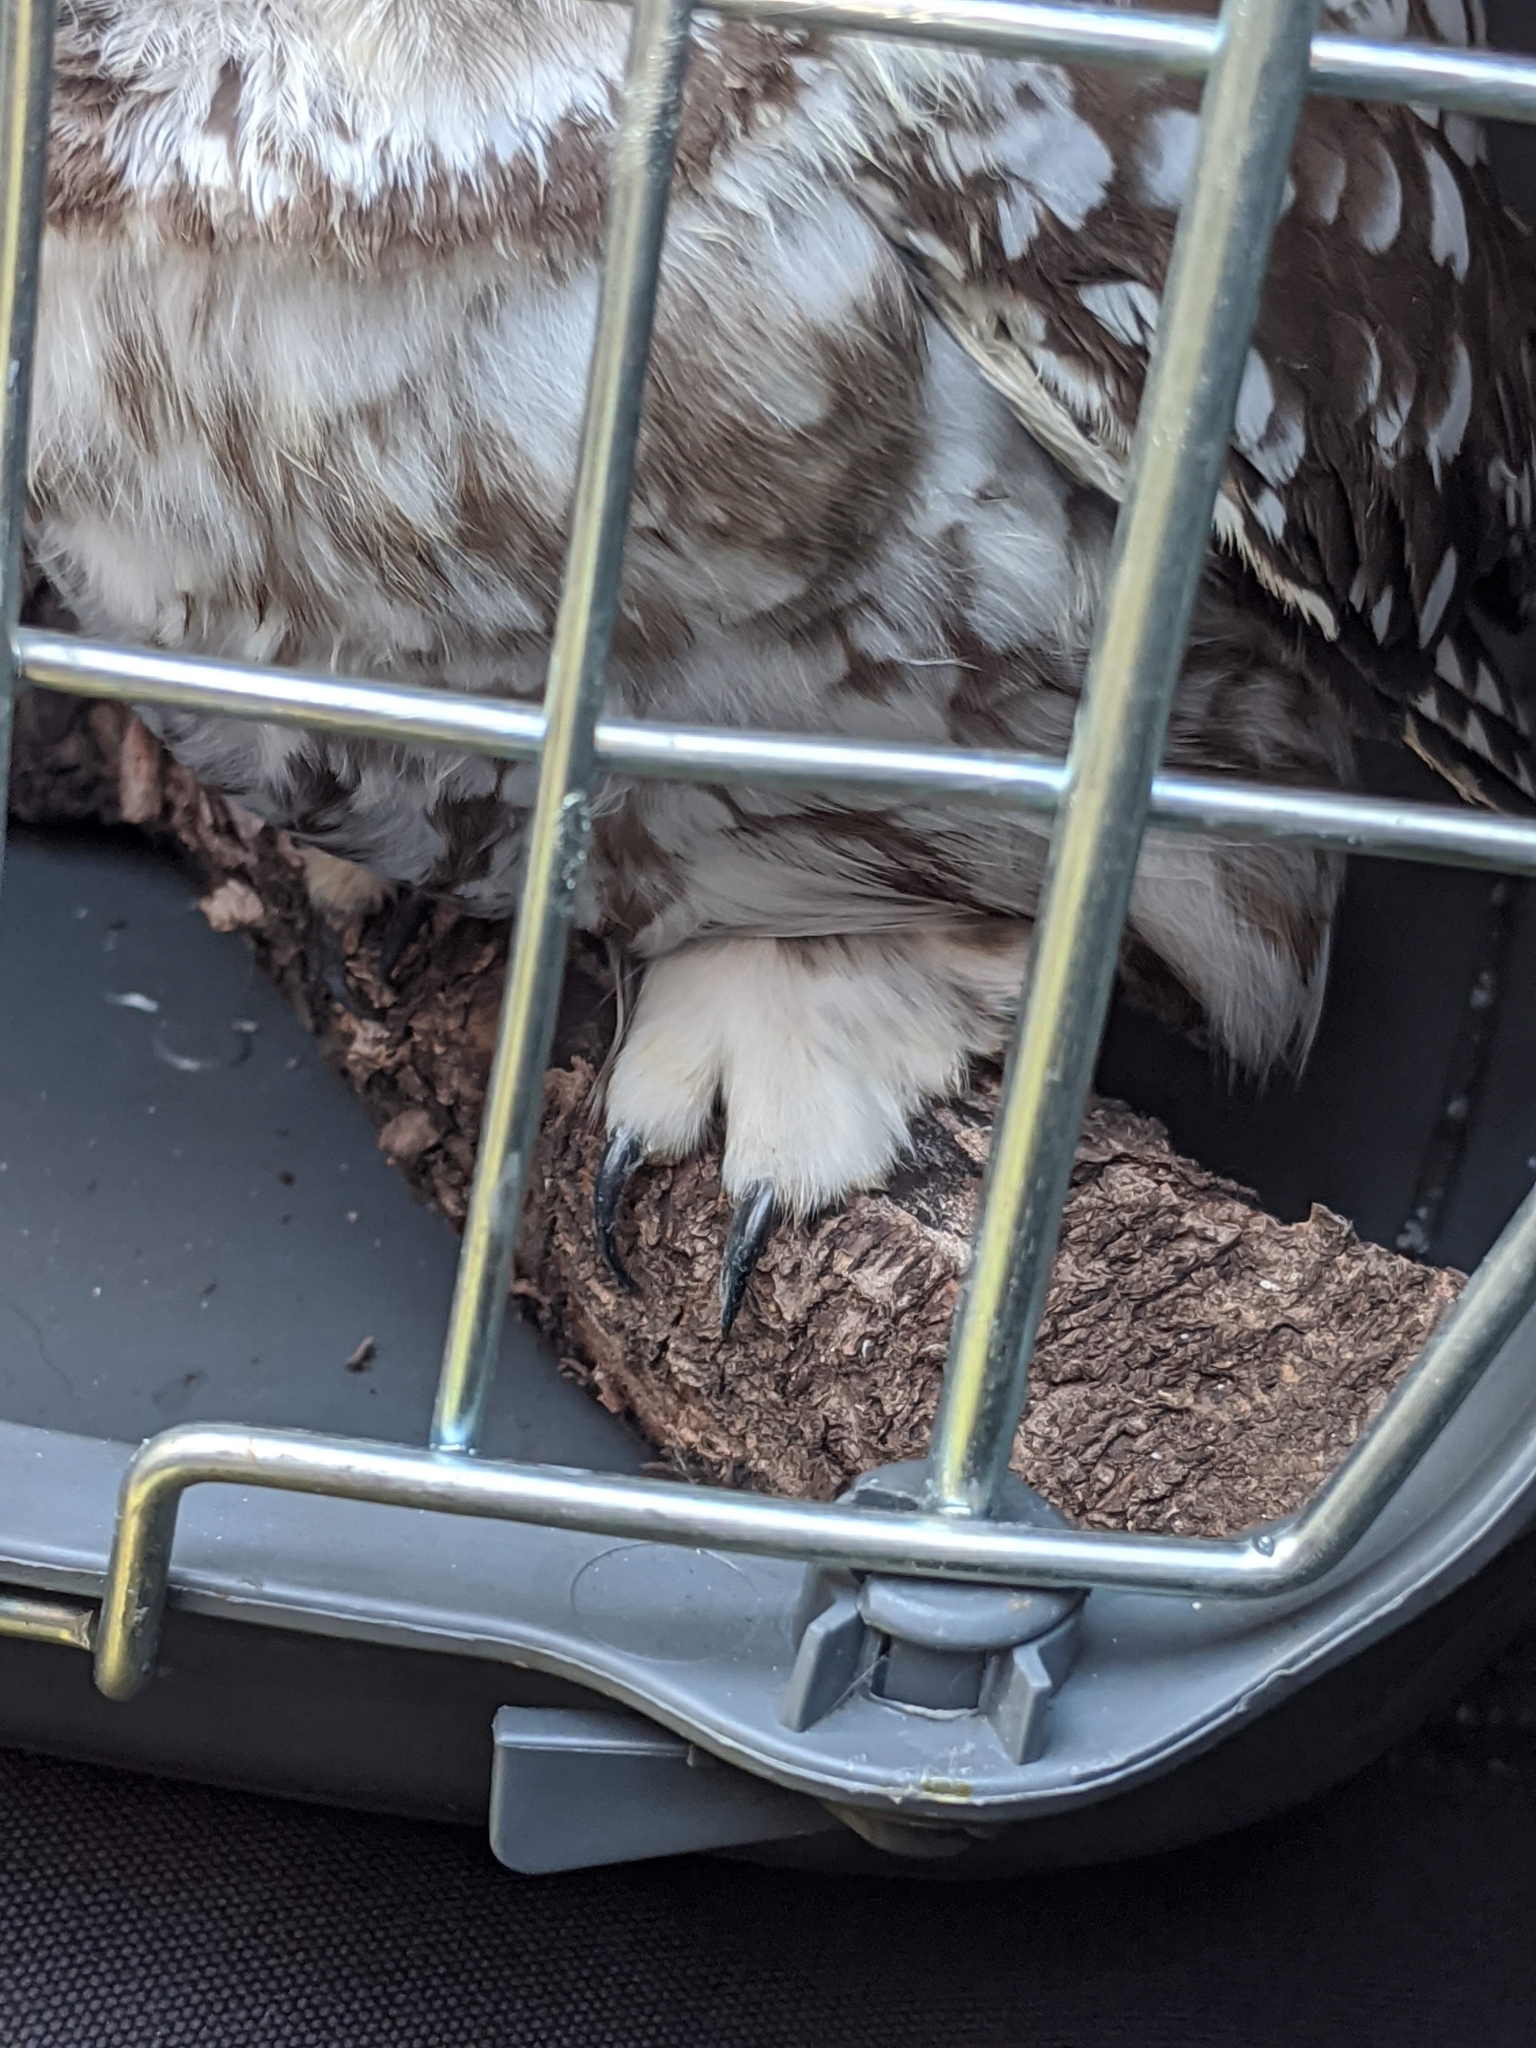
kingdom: Animalia
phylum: Chordata
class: Aves
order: Strigiformes
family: Strigidae
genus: Aegolius
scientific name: Aegolius funereus
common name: Boreal owl
